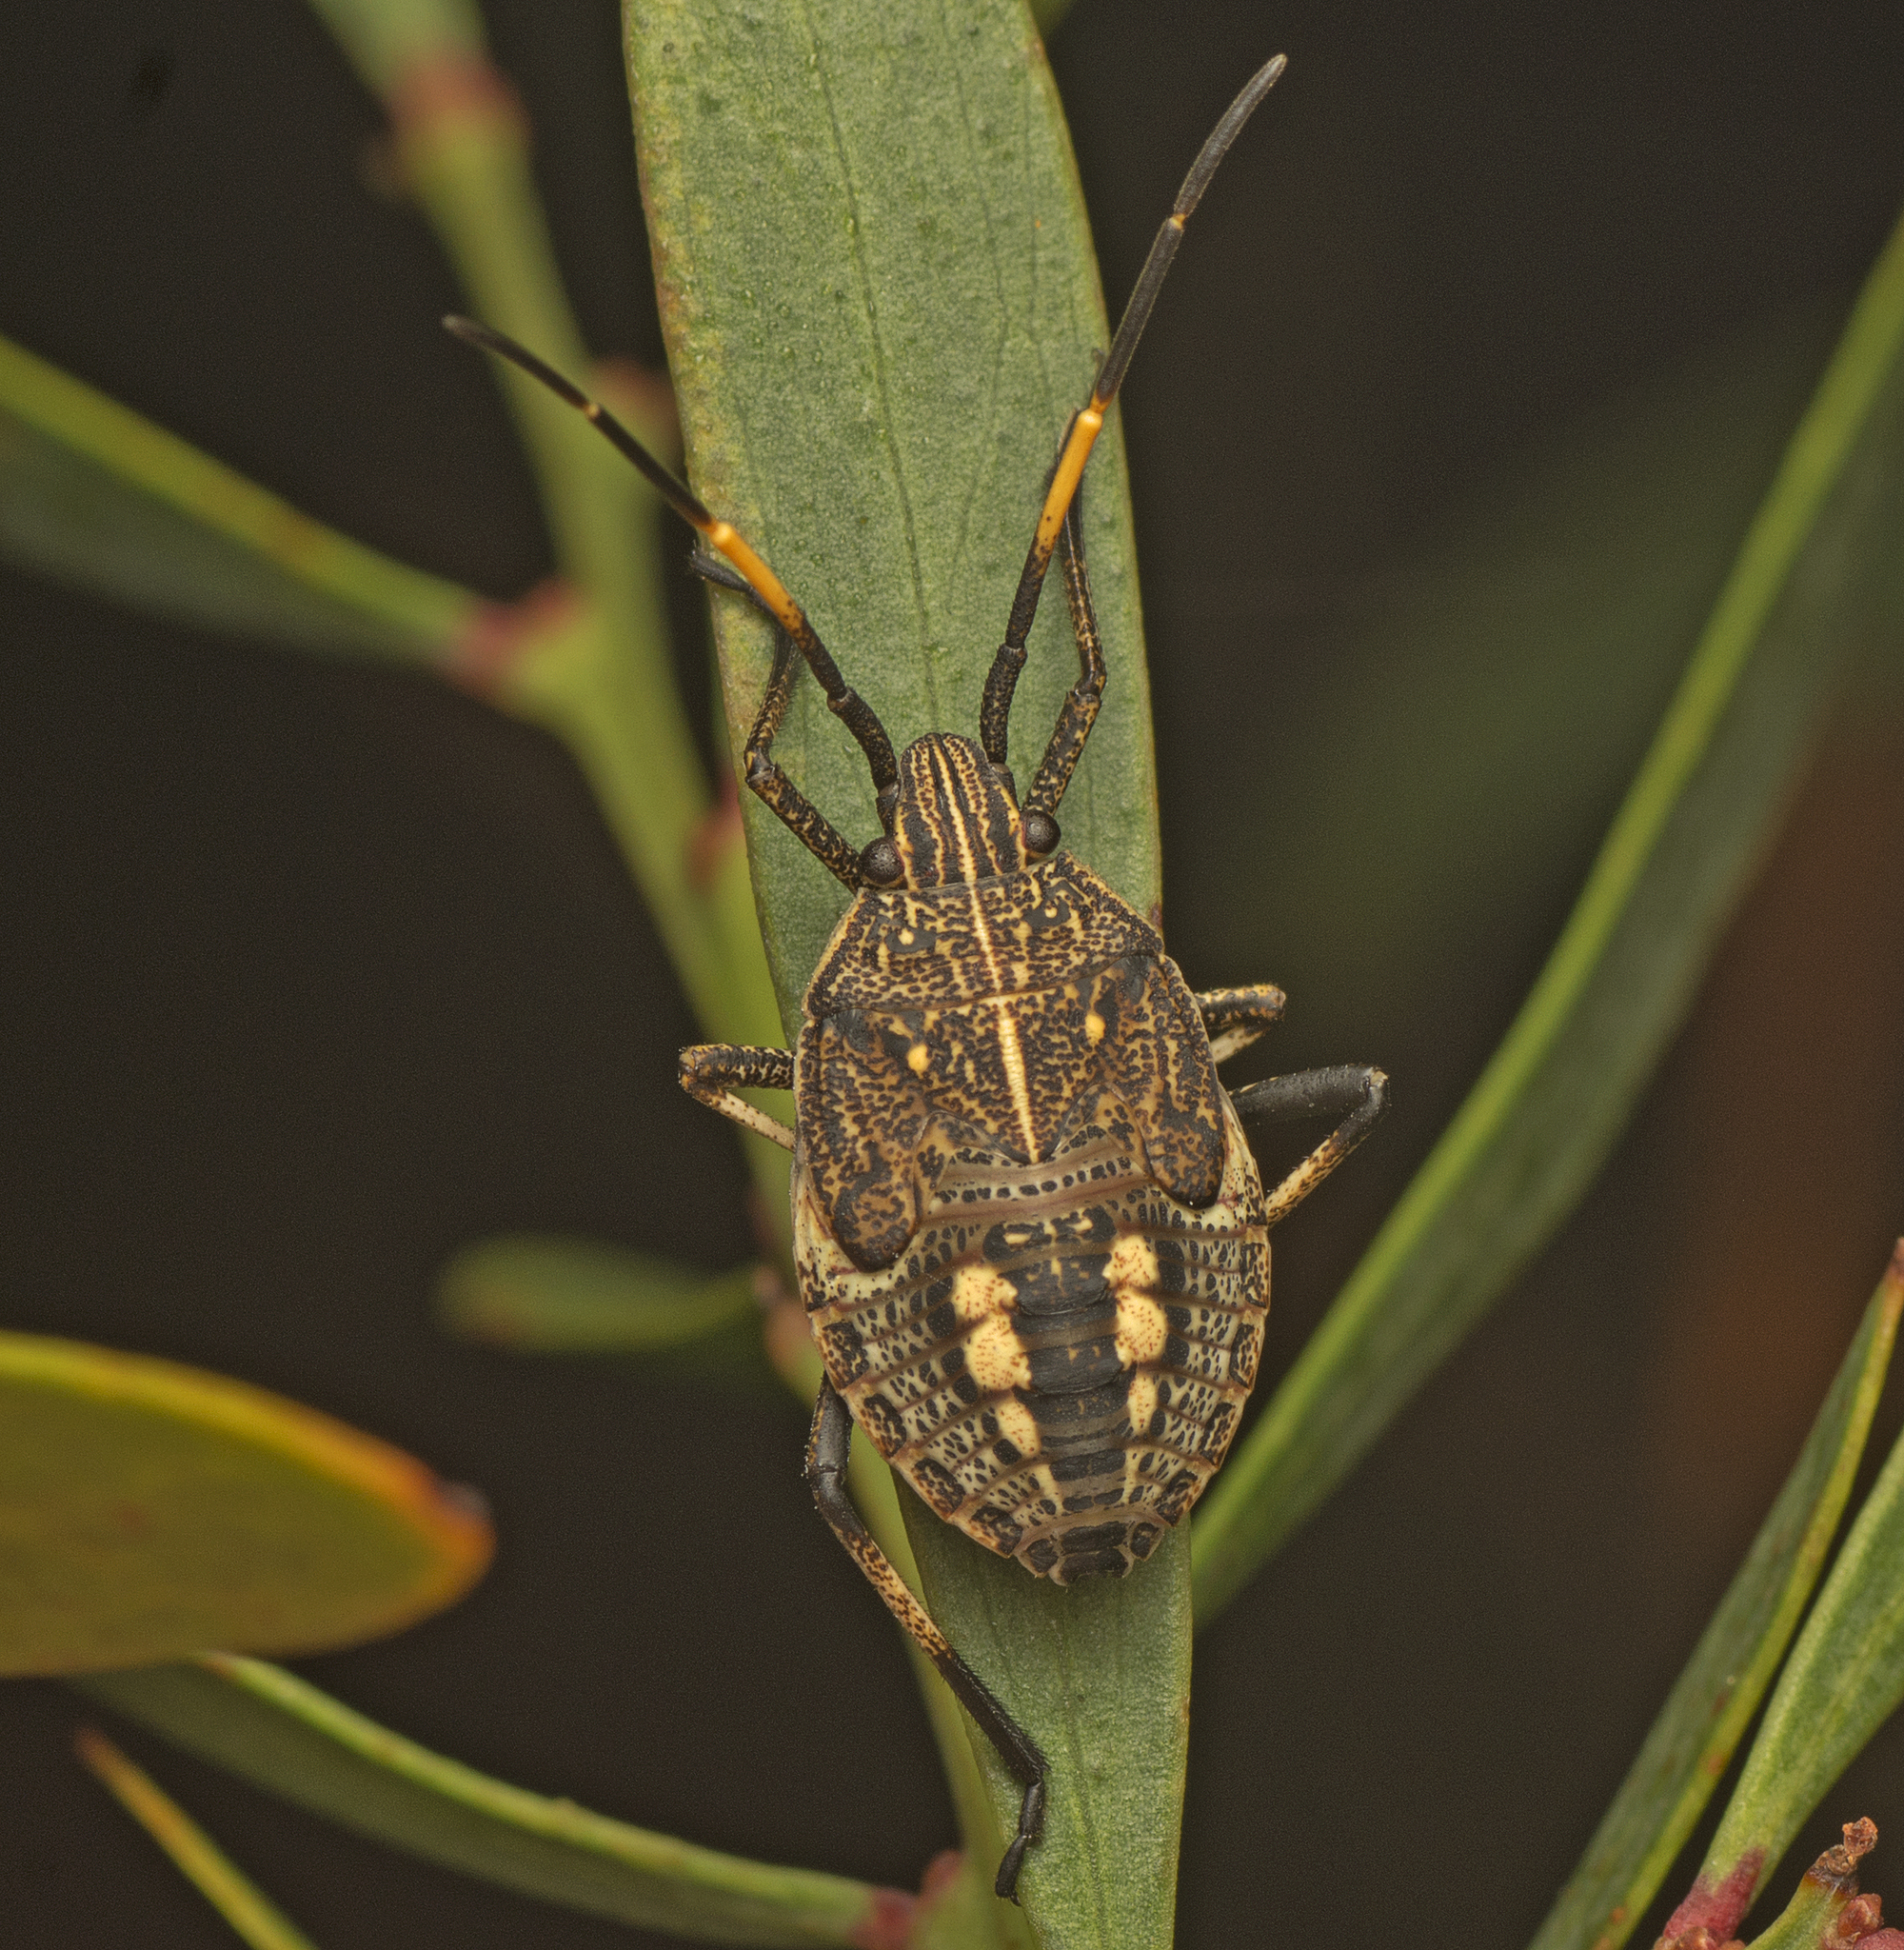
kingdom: Animalia
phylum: Arthropoda
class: Insecta
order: Hemiptera
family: Pentatomidae
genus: Poecilometis
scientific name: Poecilometis
